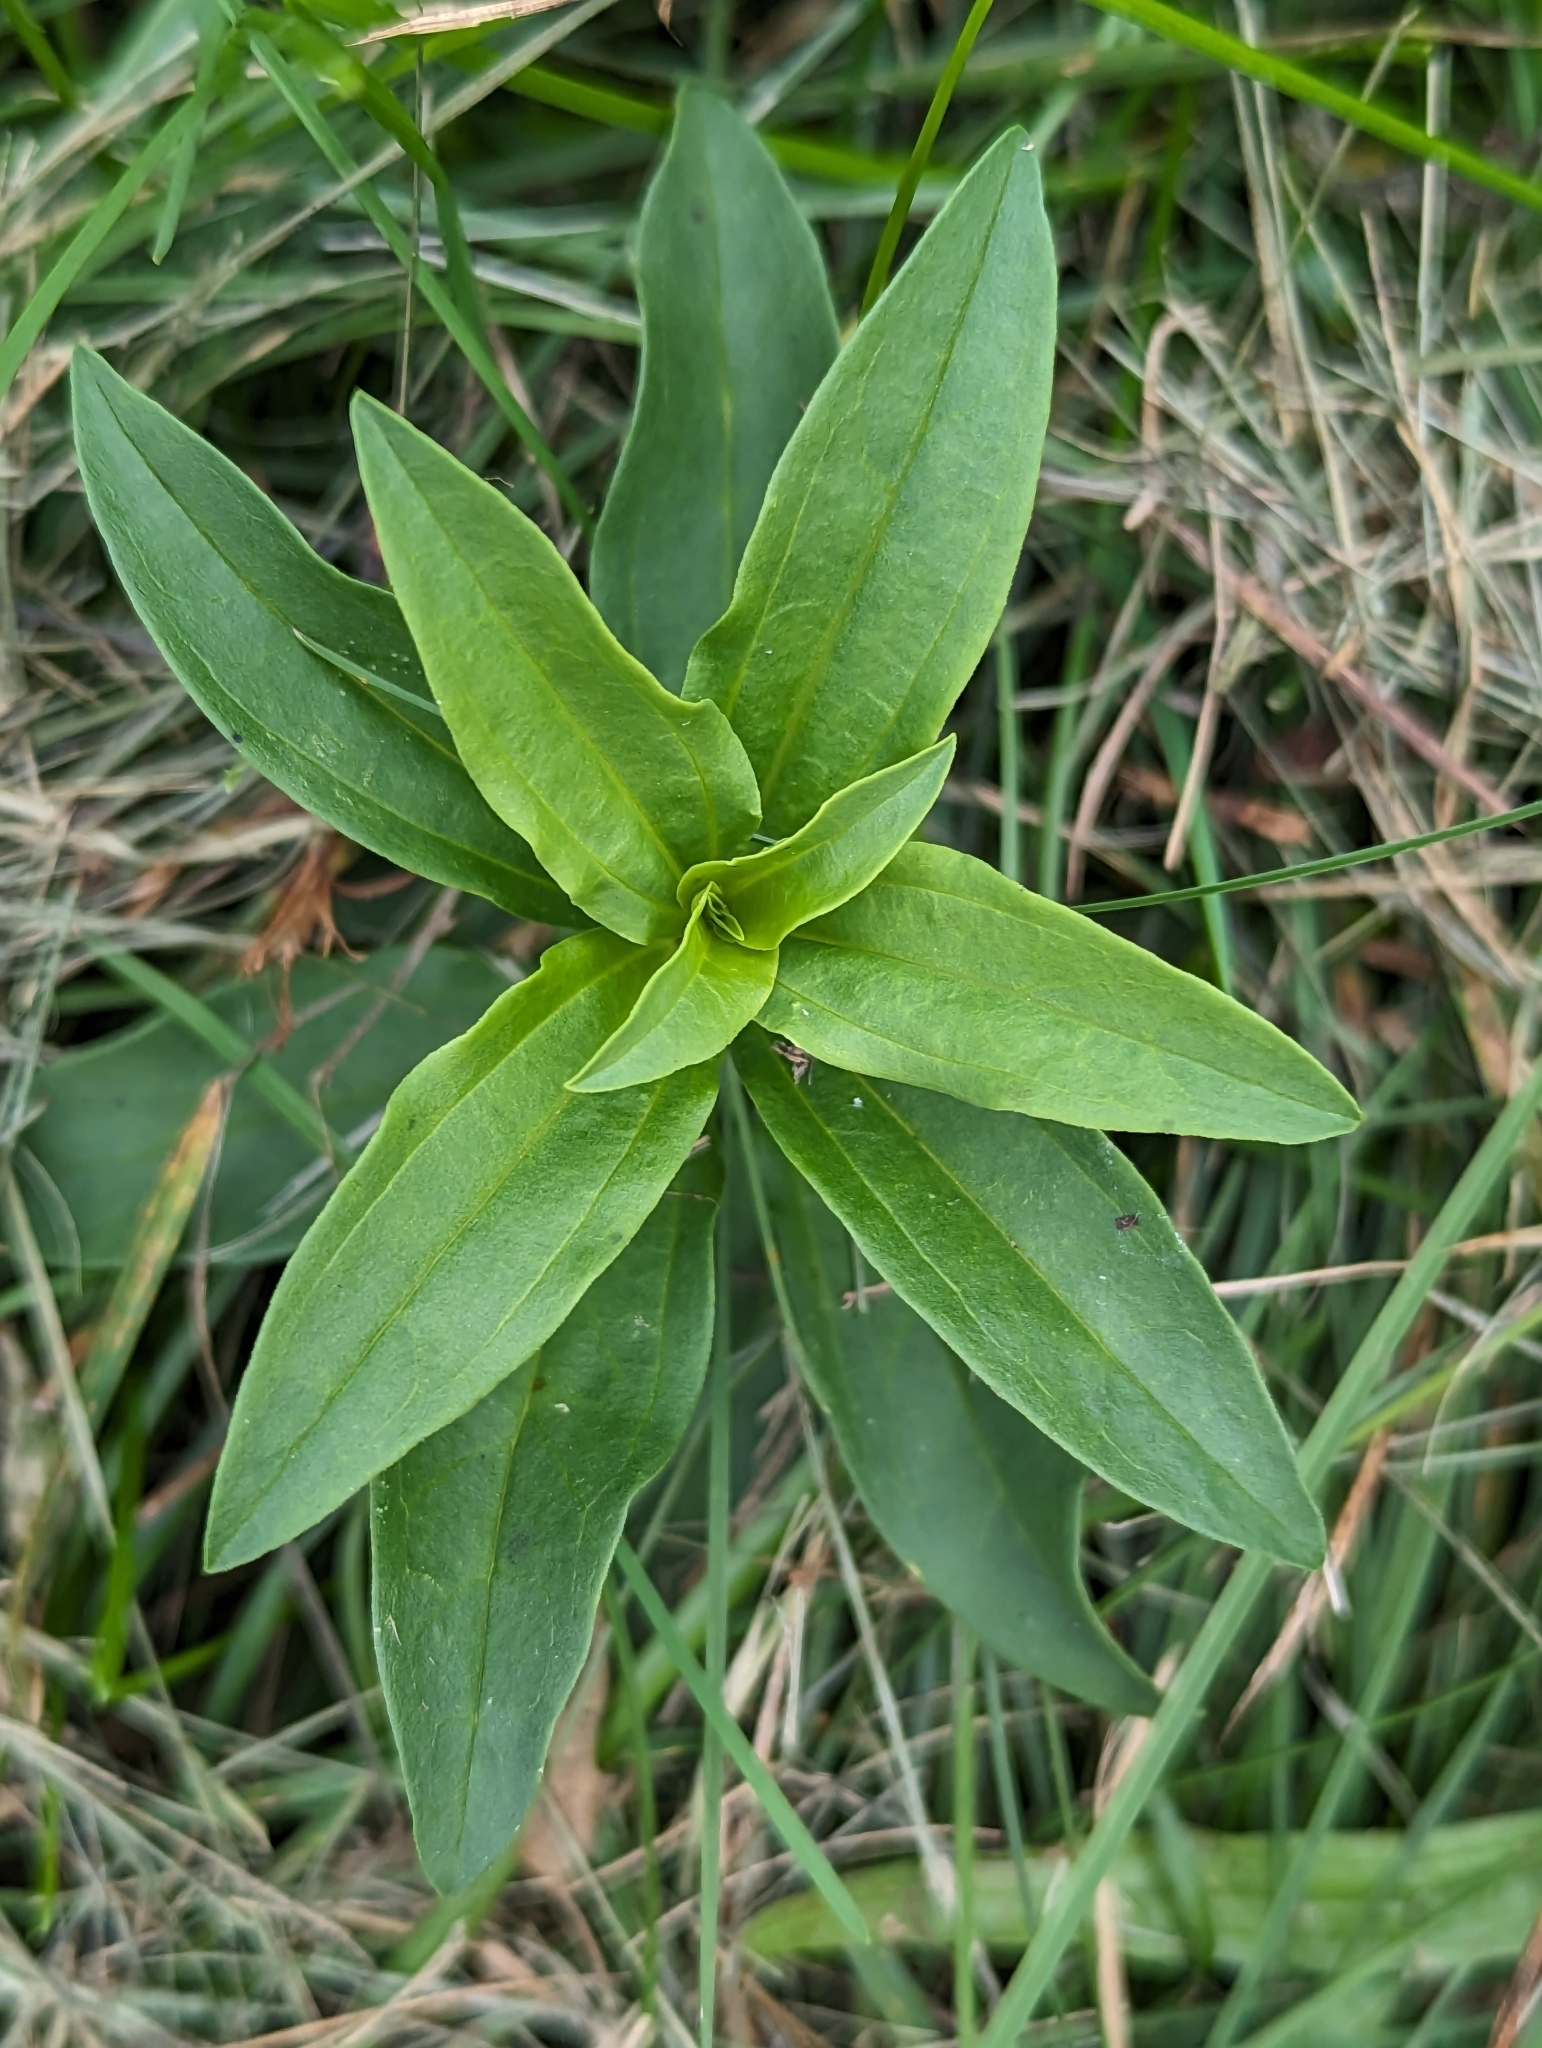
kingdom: Plantae
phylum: Tracheophyta
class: Magnoliopsida
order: Caryophyllales
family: Caryophyllaceae
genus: Saponaria
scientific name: Saponaria officinalis
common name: Soapwort
